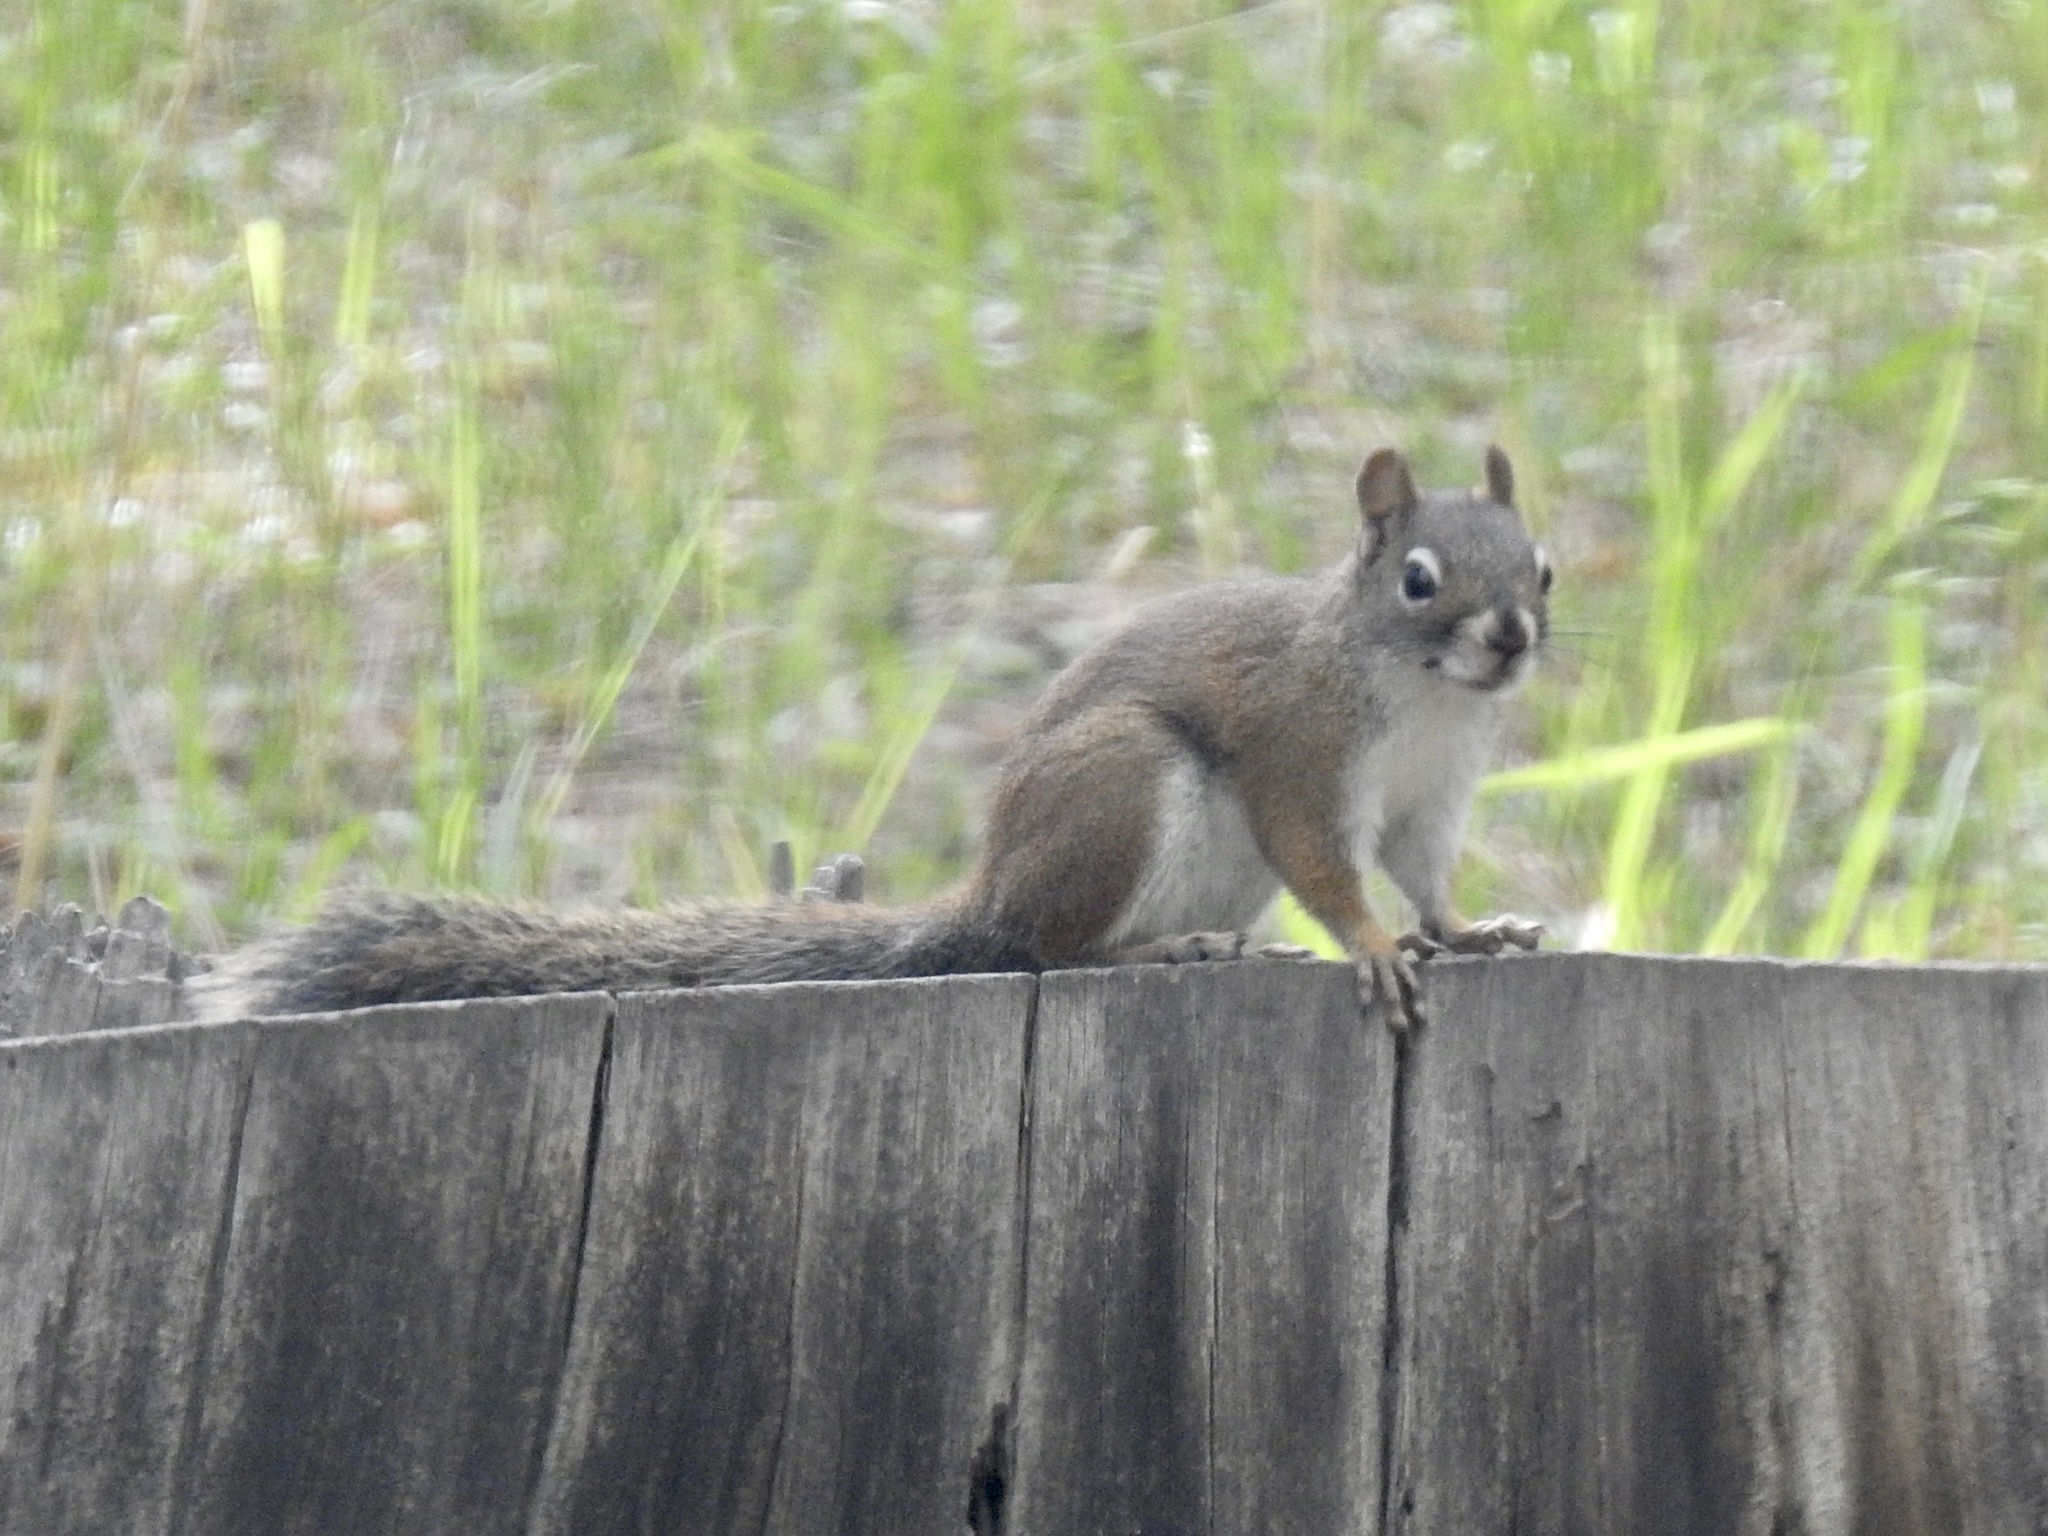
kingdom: Animalia
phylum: Chordata
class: Mammalia
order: Rodentia
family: Sciuridae
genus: Tamiasciurus
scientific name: Tamiasciurus hudsonicus
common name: Red squirrel
